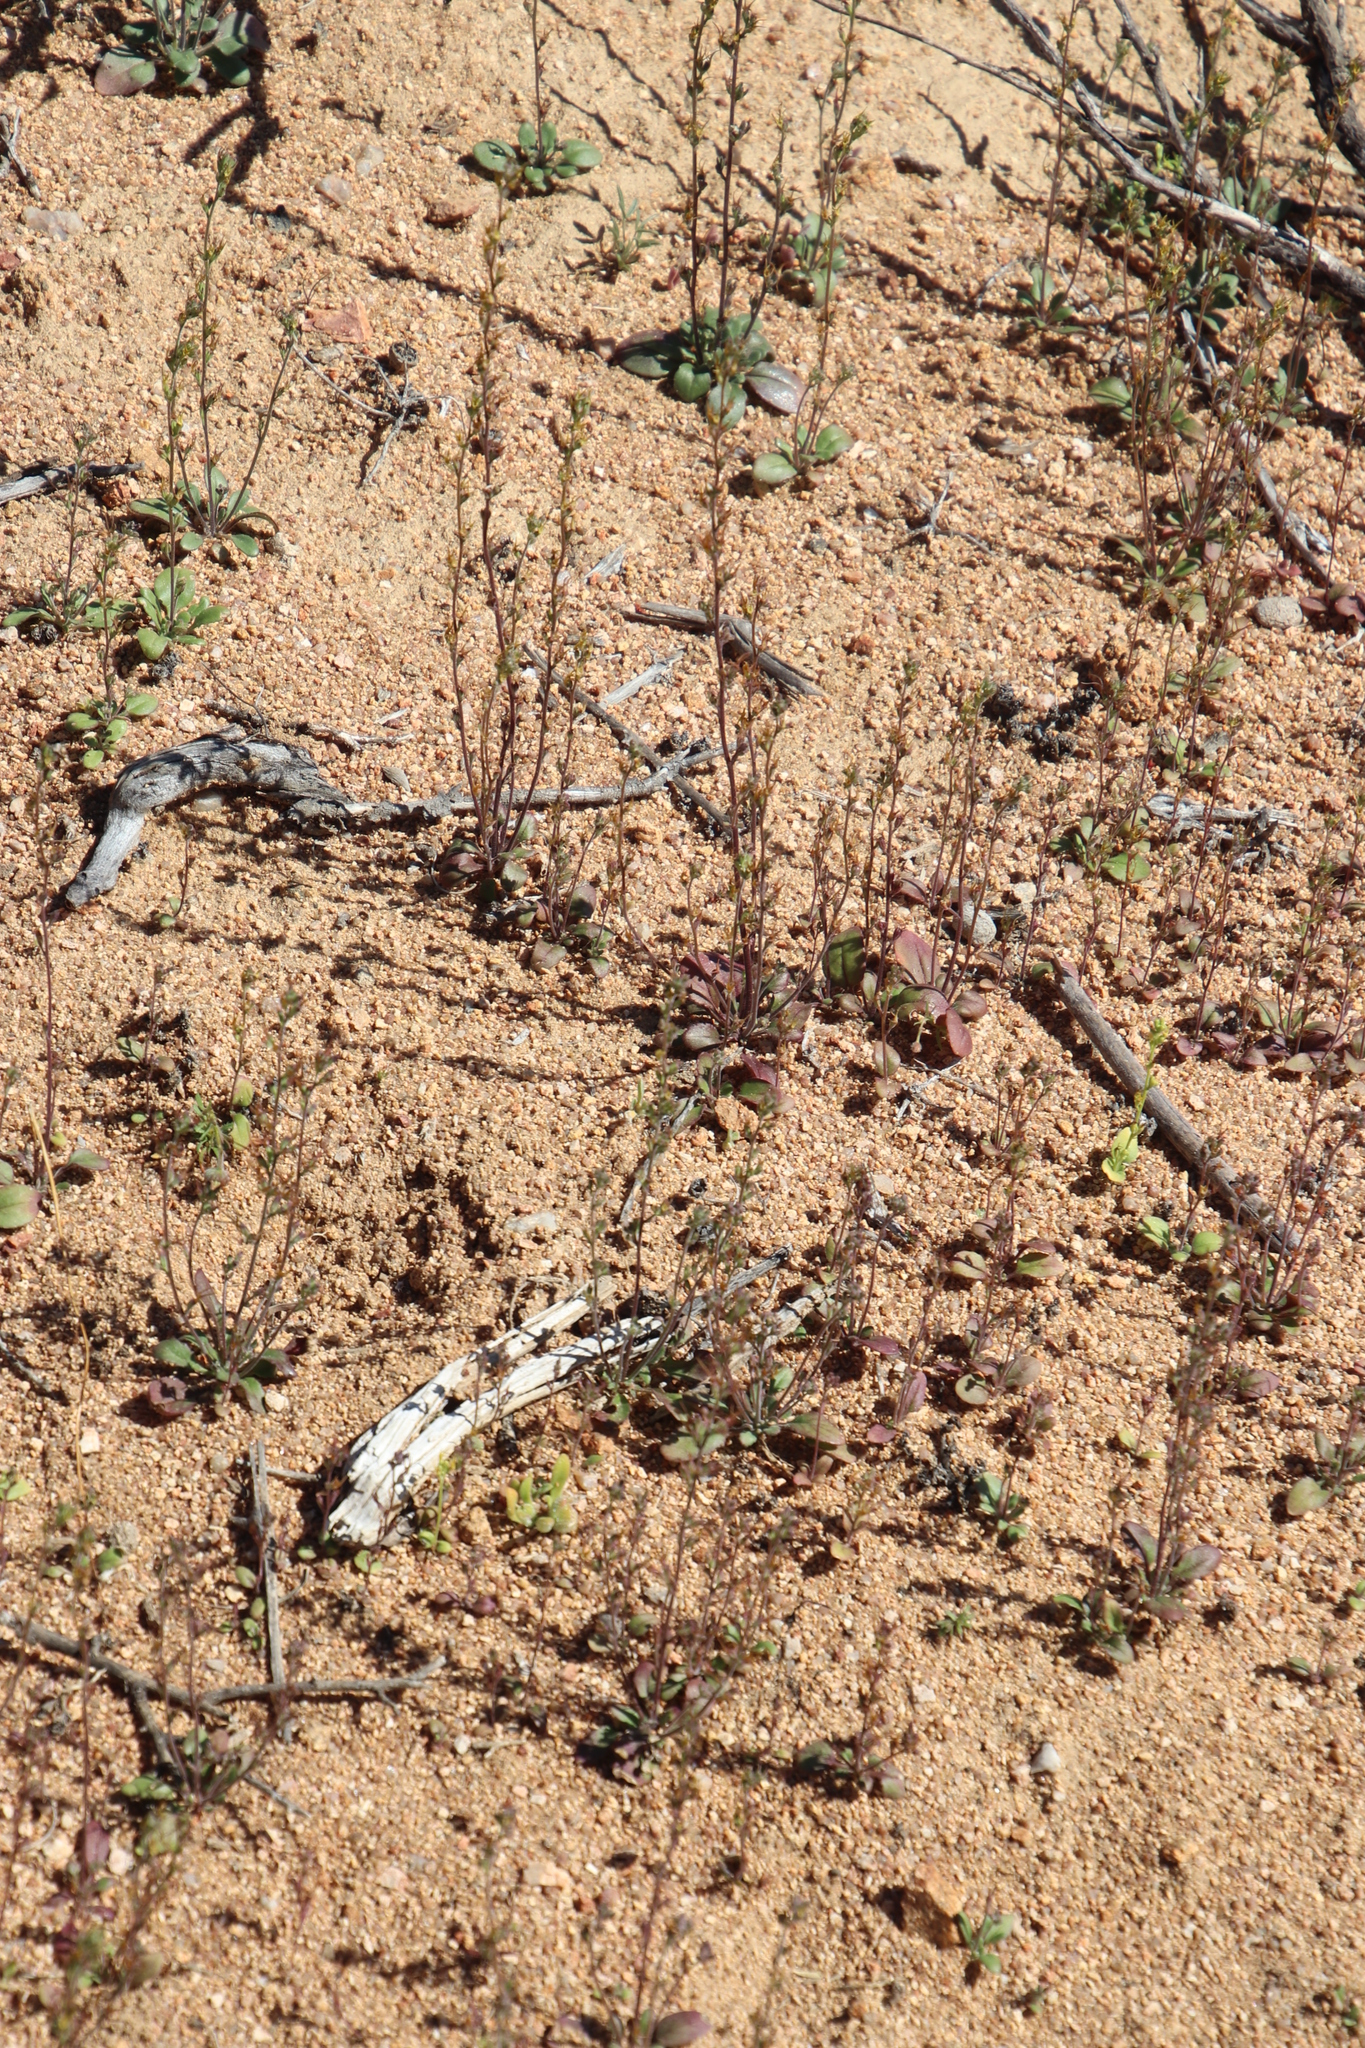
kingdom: Plantae
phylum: Tracheophyta
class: Magnoliopsida
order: Lamiales
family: Scrophulariaceae
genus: Manulea
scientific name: Manulea decipiens
